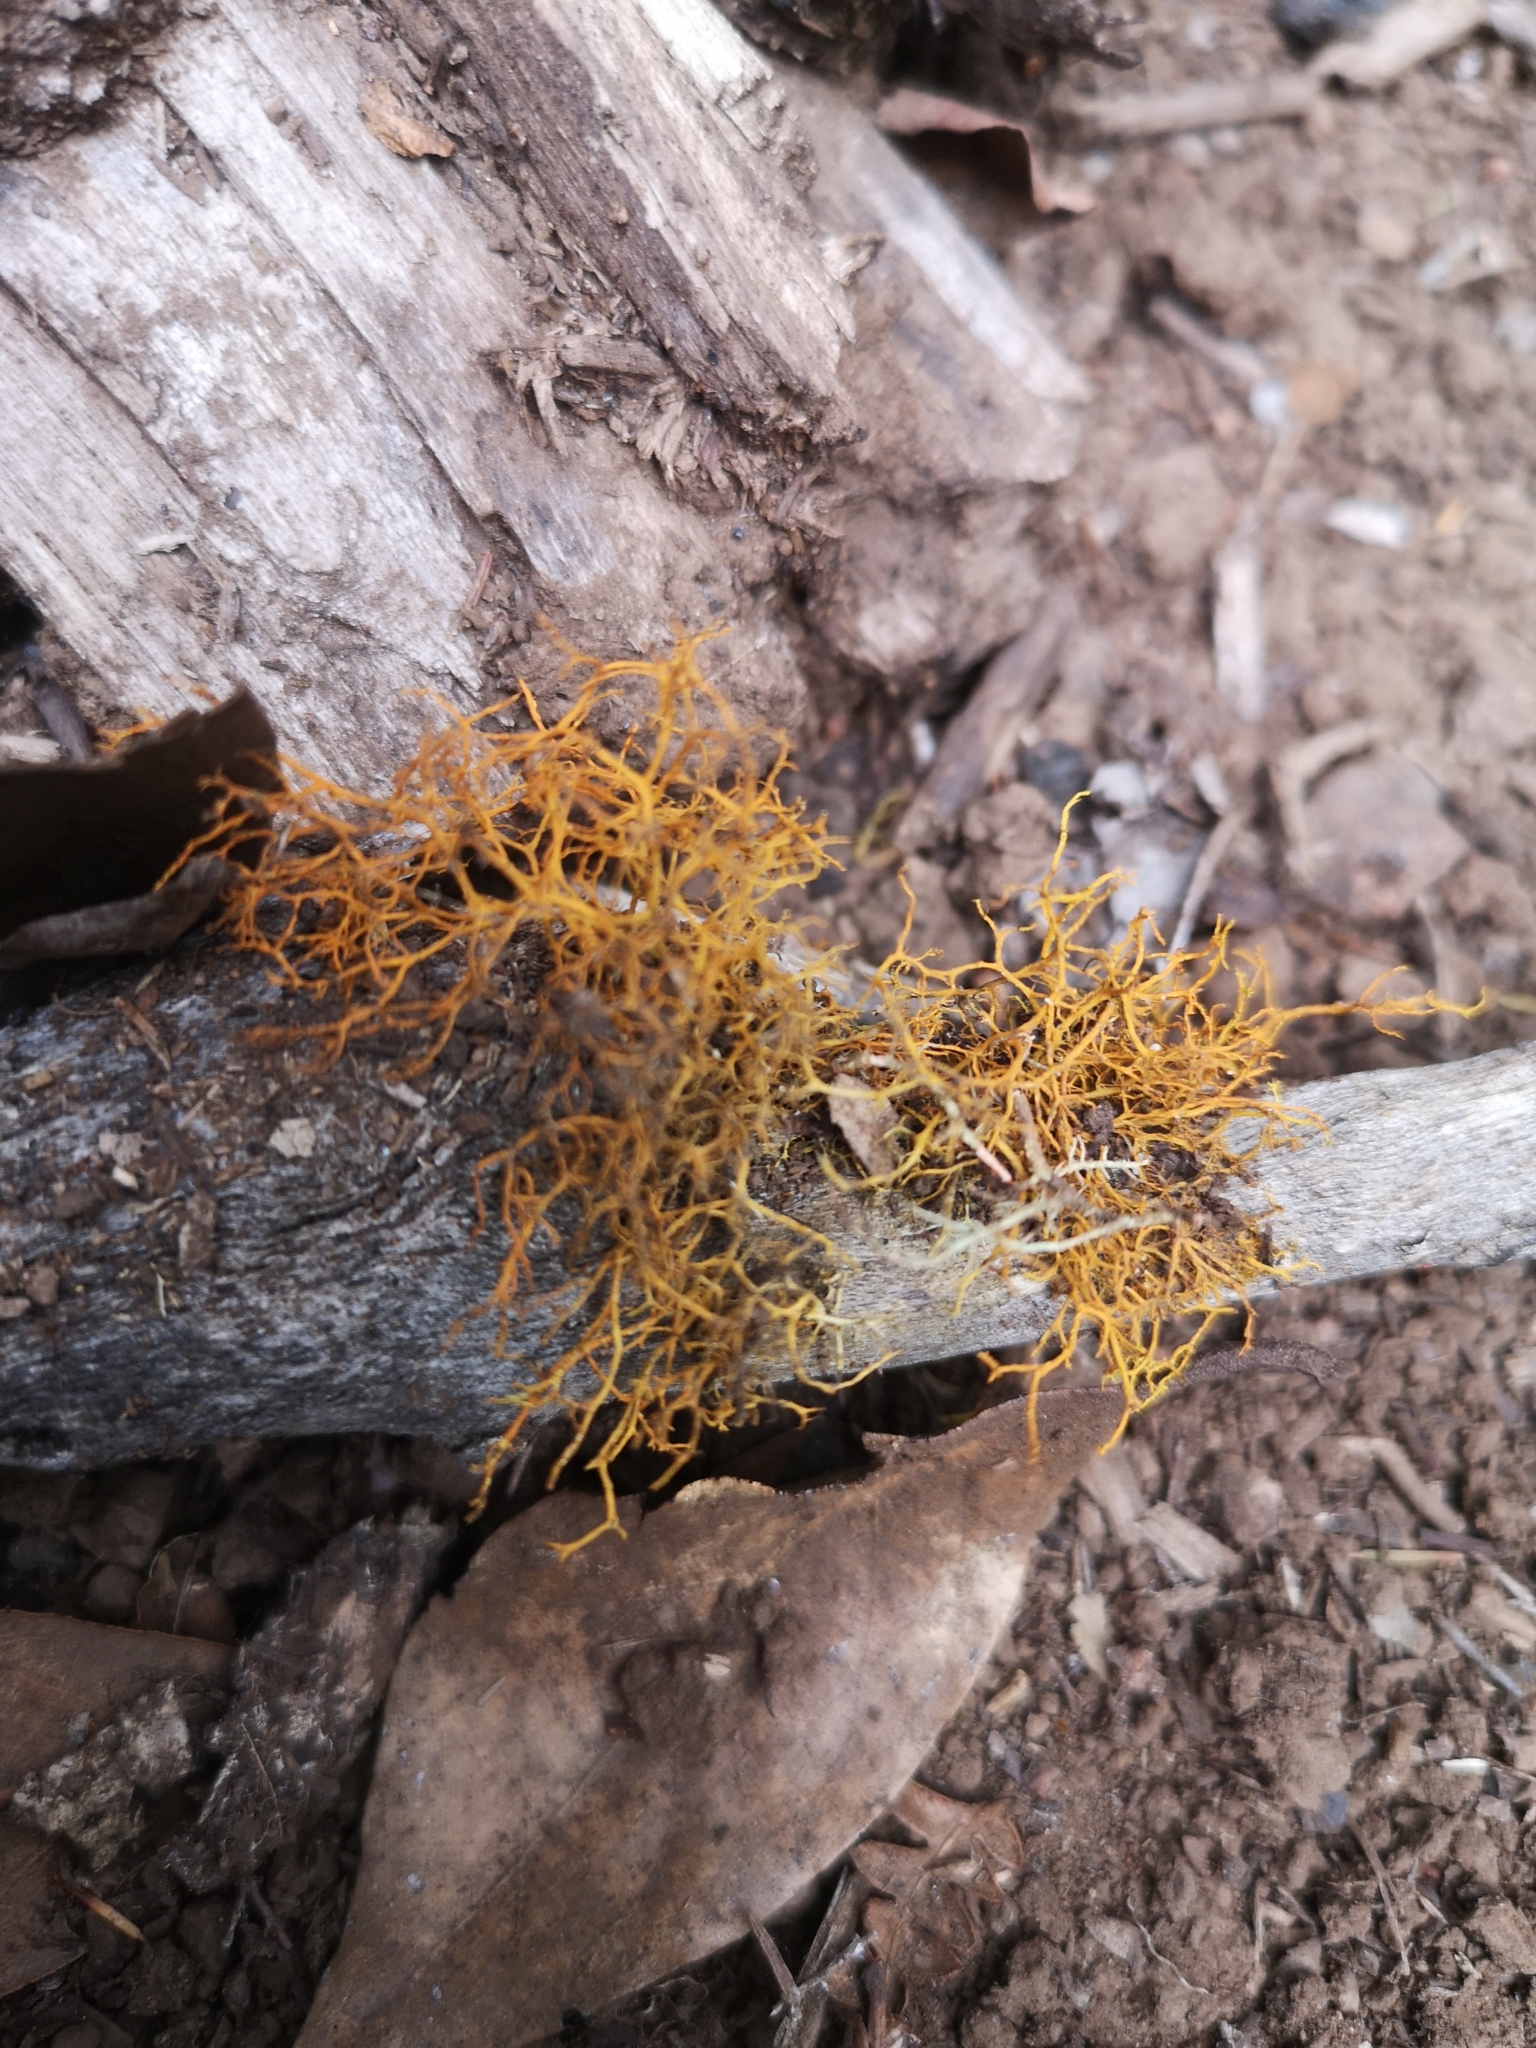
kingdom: Fungi
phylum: Ascomycota
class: Lecanoromycetes
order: Teloschistales
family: Teloschistaceae
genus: Teloschistes
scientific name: Teloschistes flavicans
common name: Golden hair-lichen
